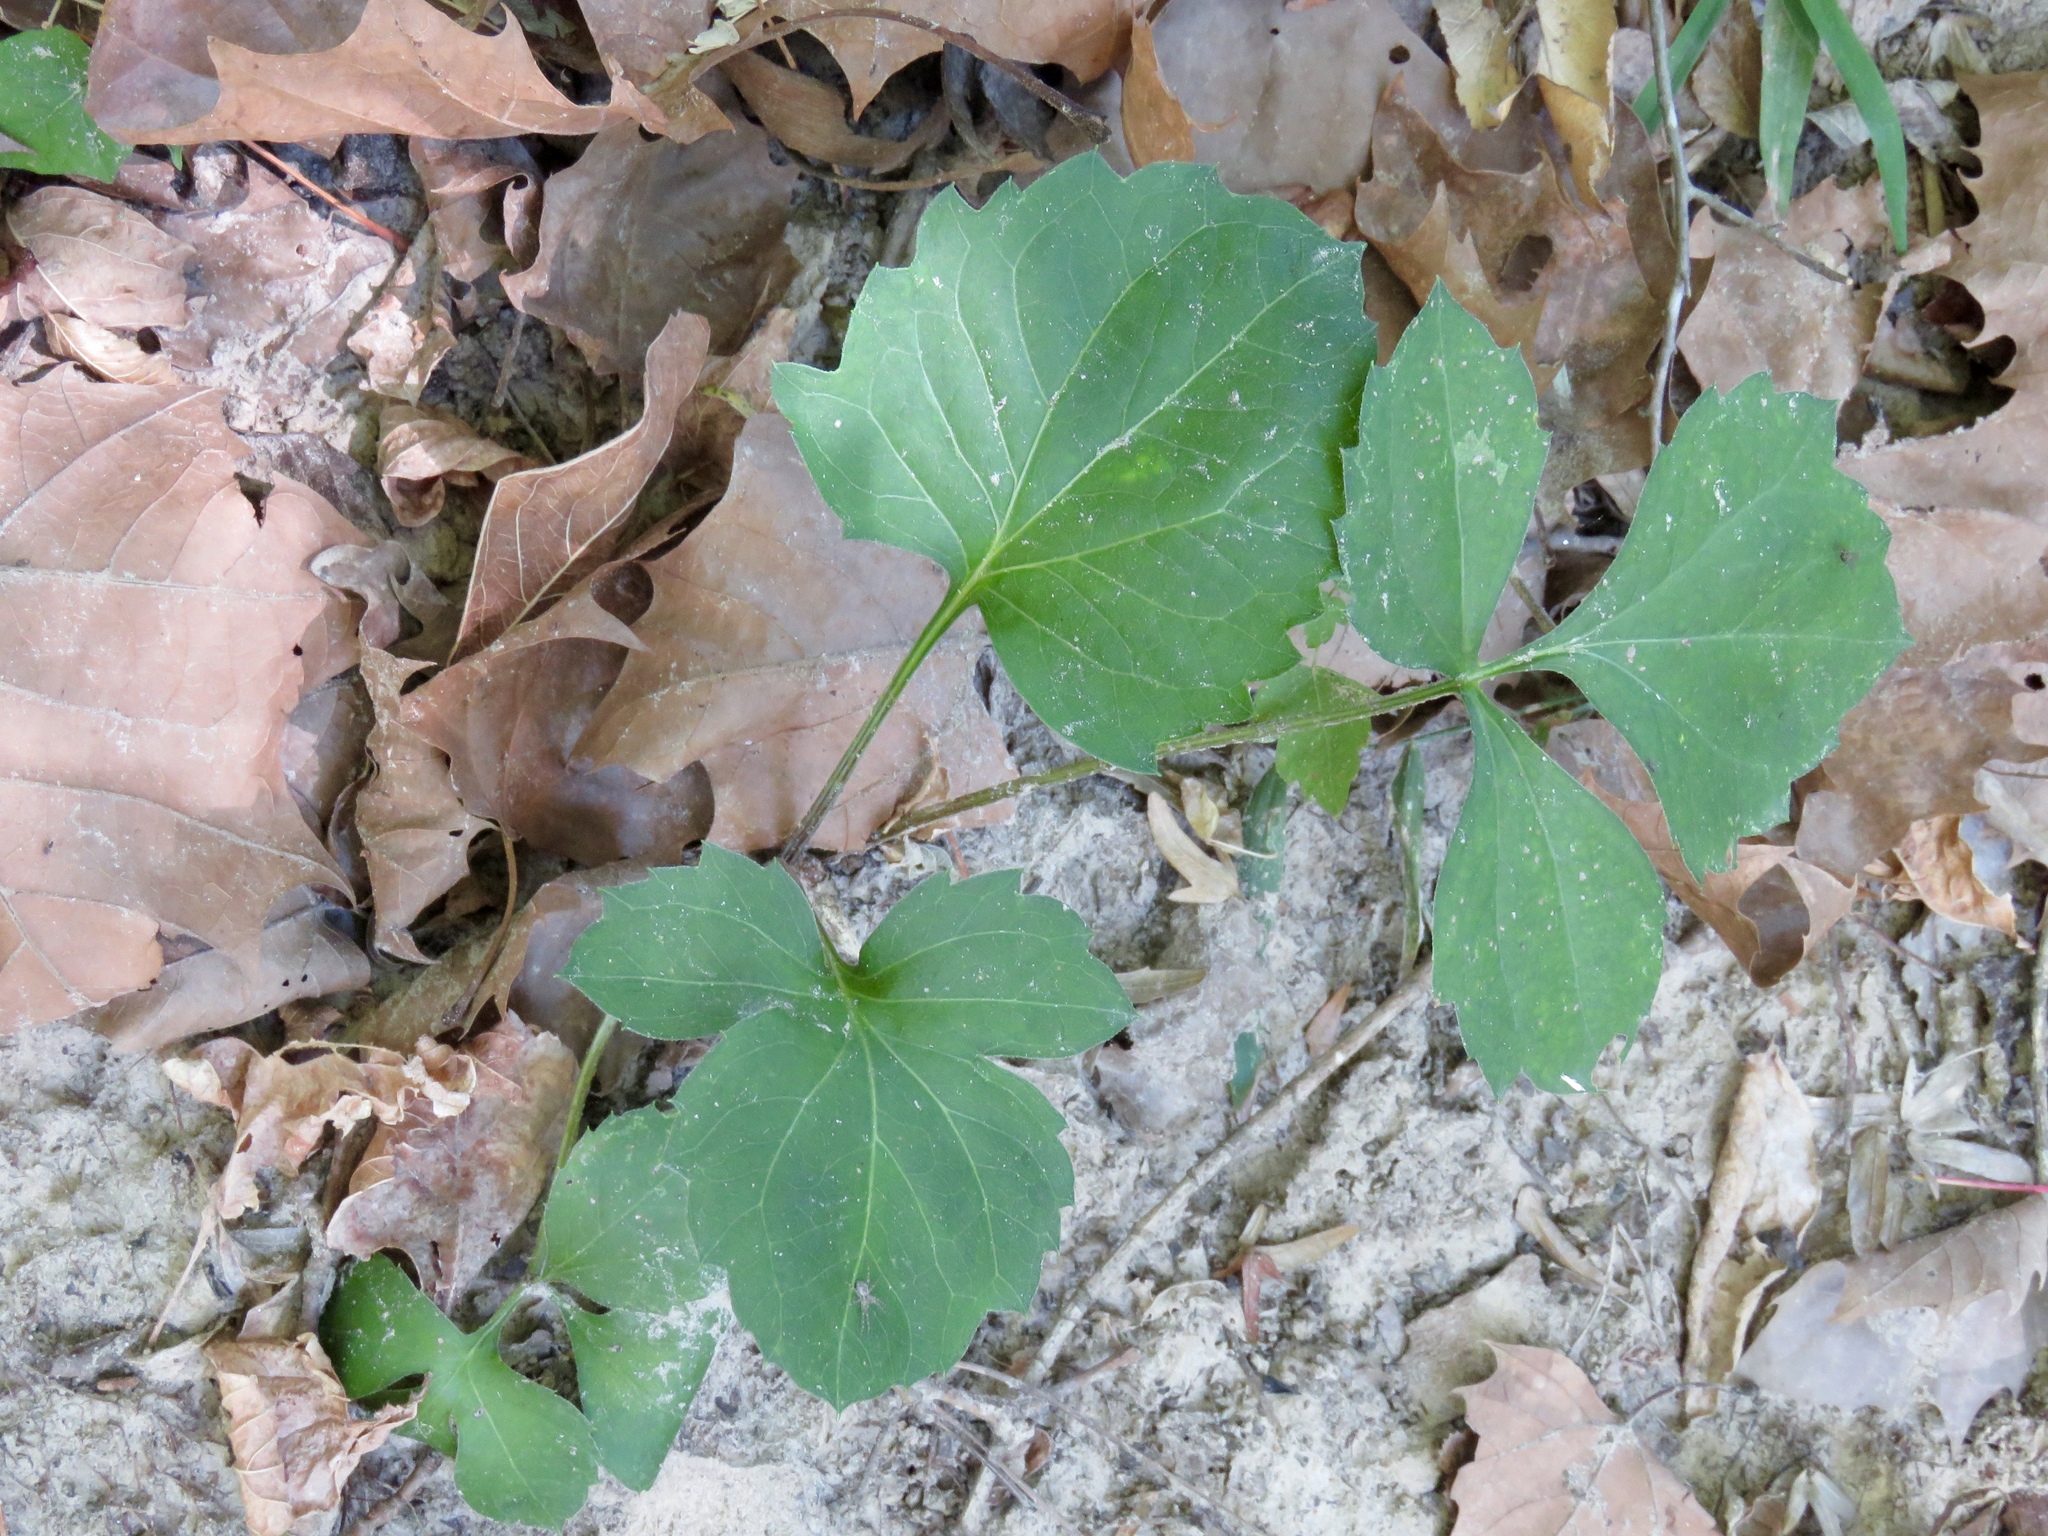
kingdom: Plantae
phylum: Tracheophyta
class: Magnoliopsida
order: Asterales
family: Asteraceae
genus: Rudbeckia
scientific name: Rudbeckia laciniata
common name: Coneflower
